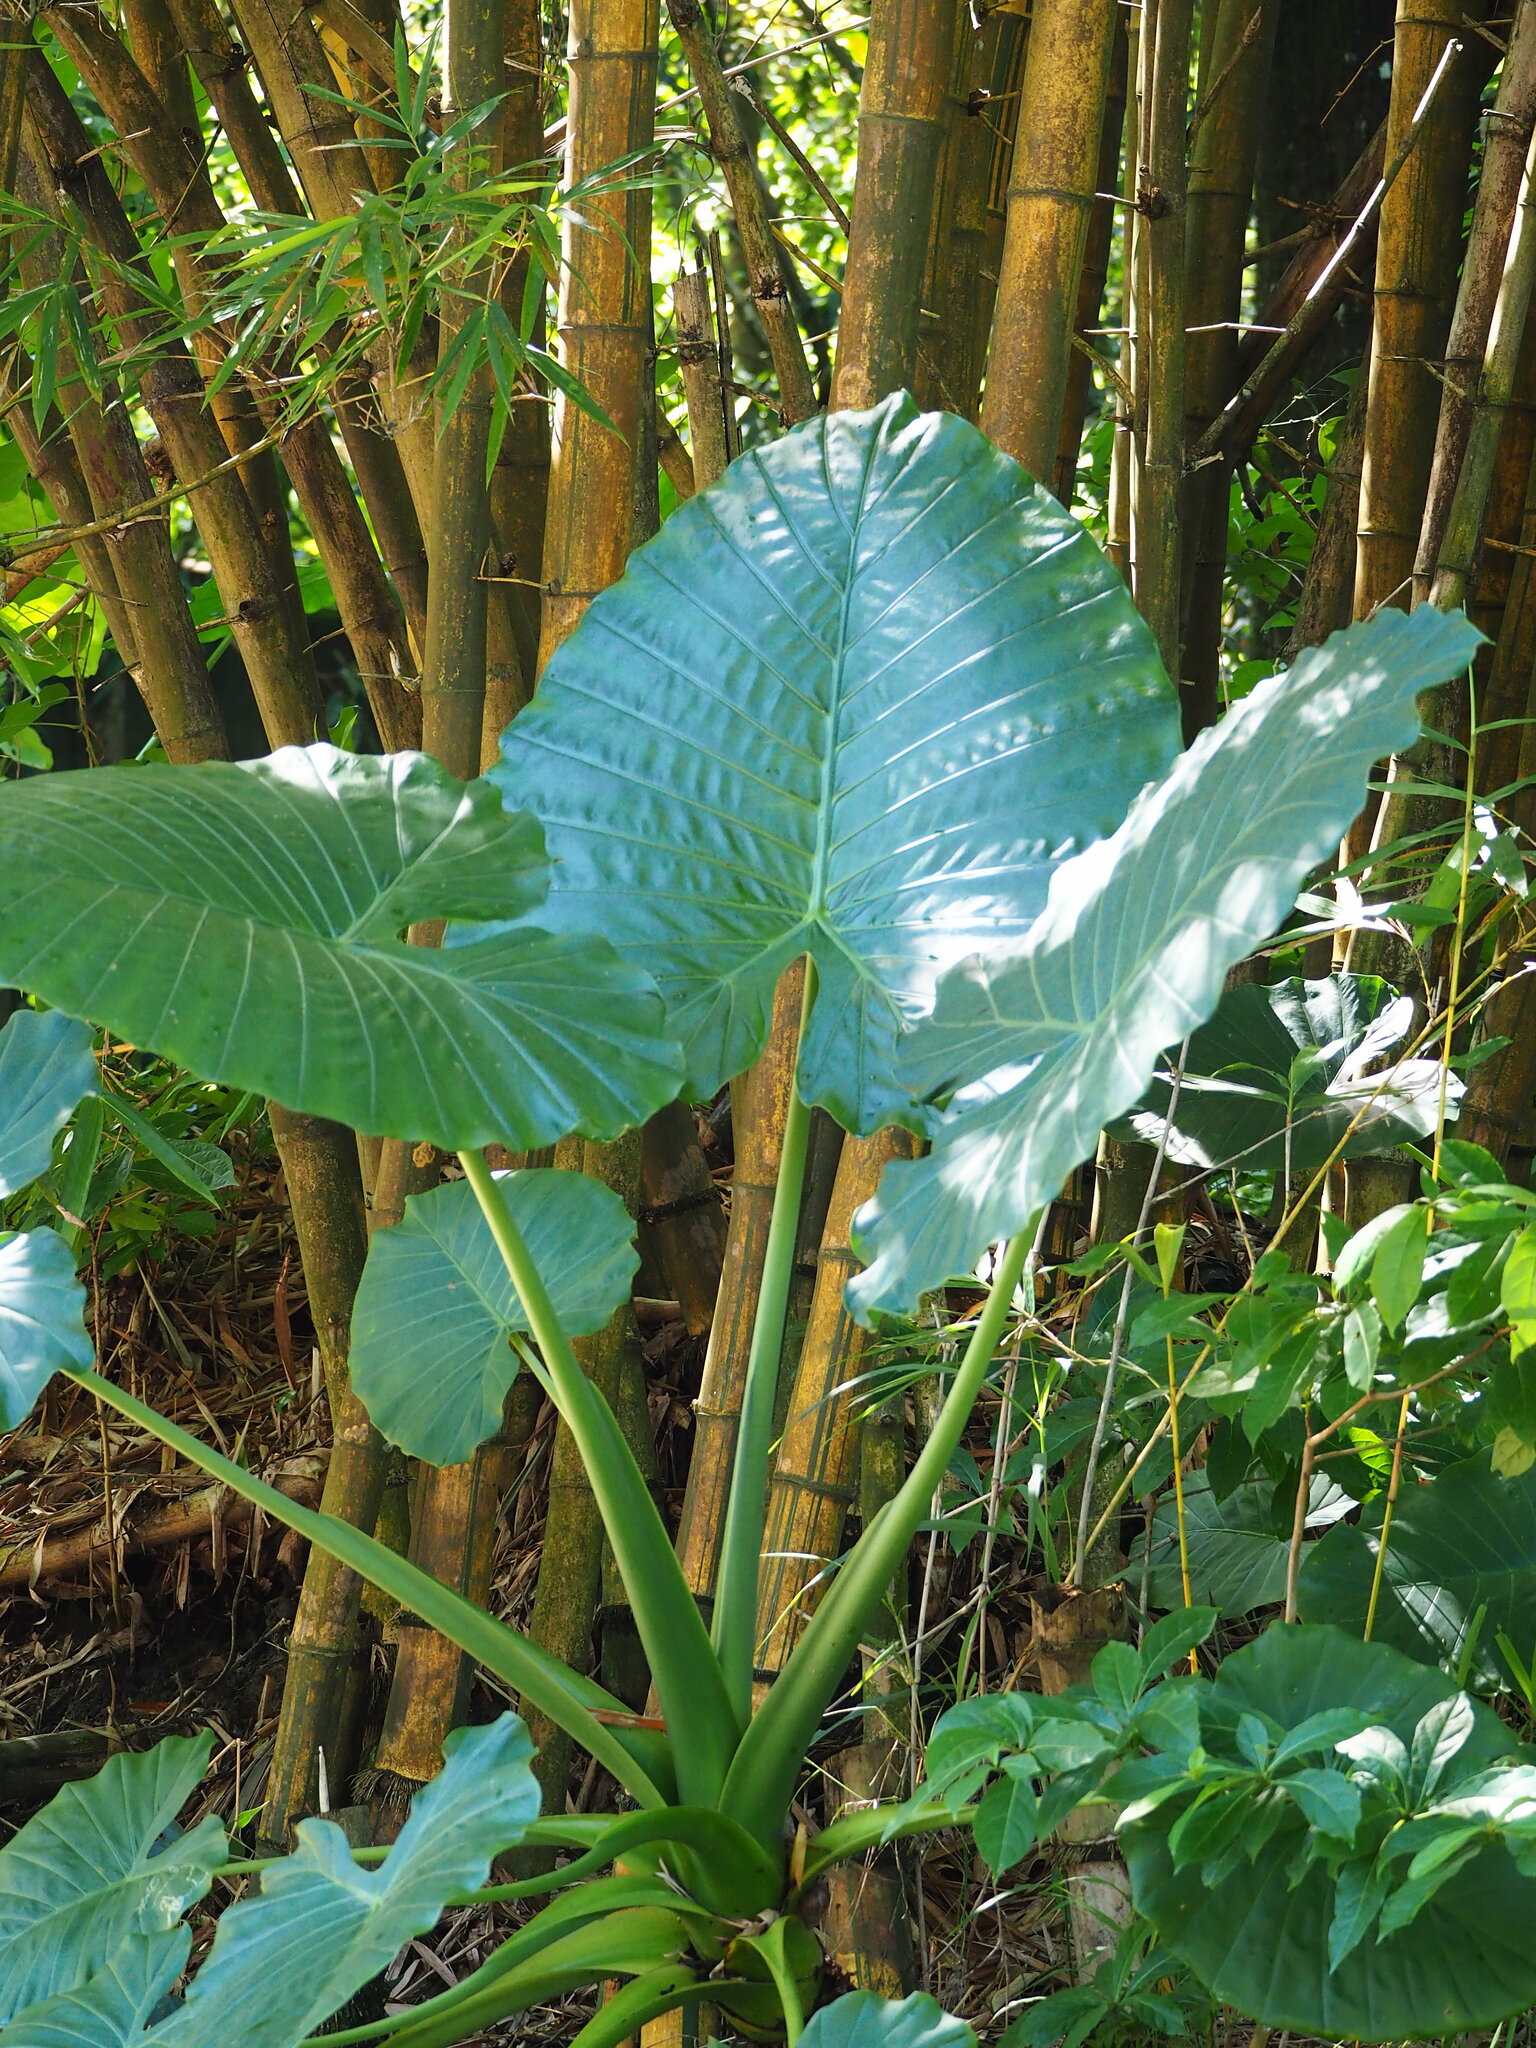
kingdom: Plantae
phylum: Tracheophyta
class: Liliopsida
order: Alismatales
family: Araceae
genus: Alocasia
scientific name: Alocasia odora
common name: Asian taro
